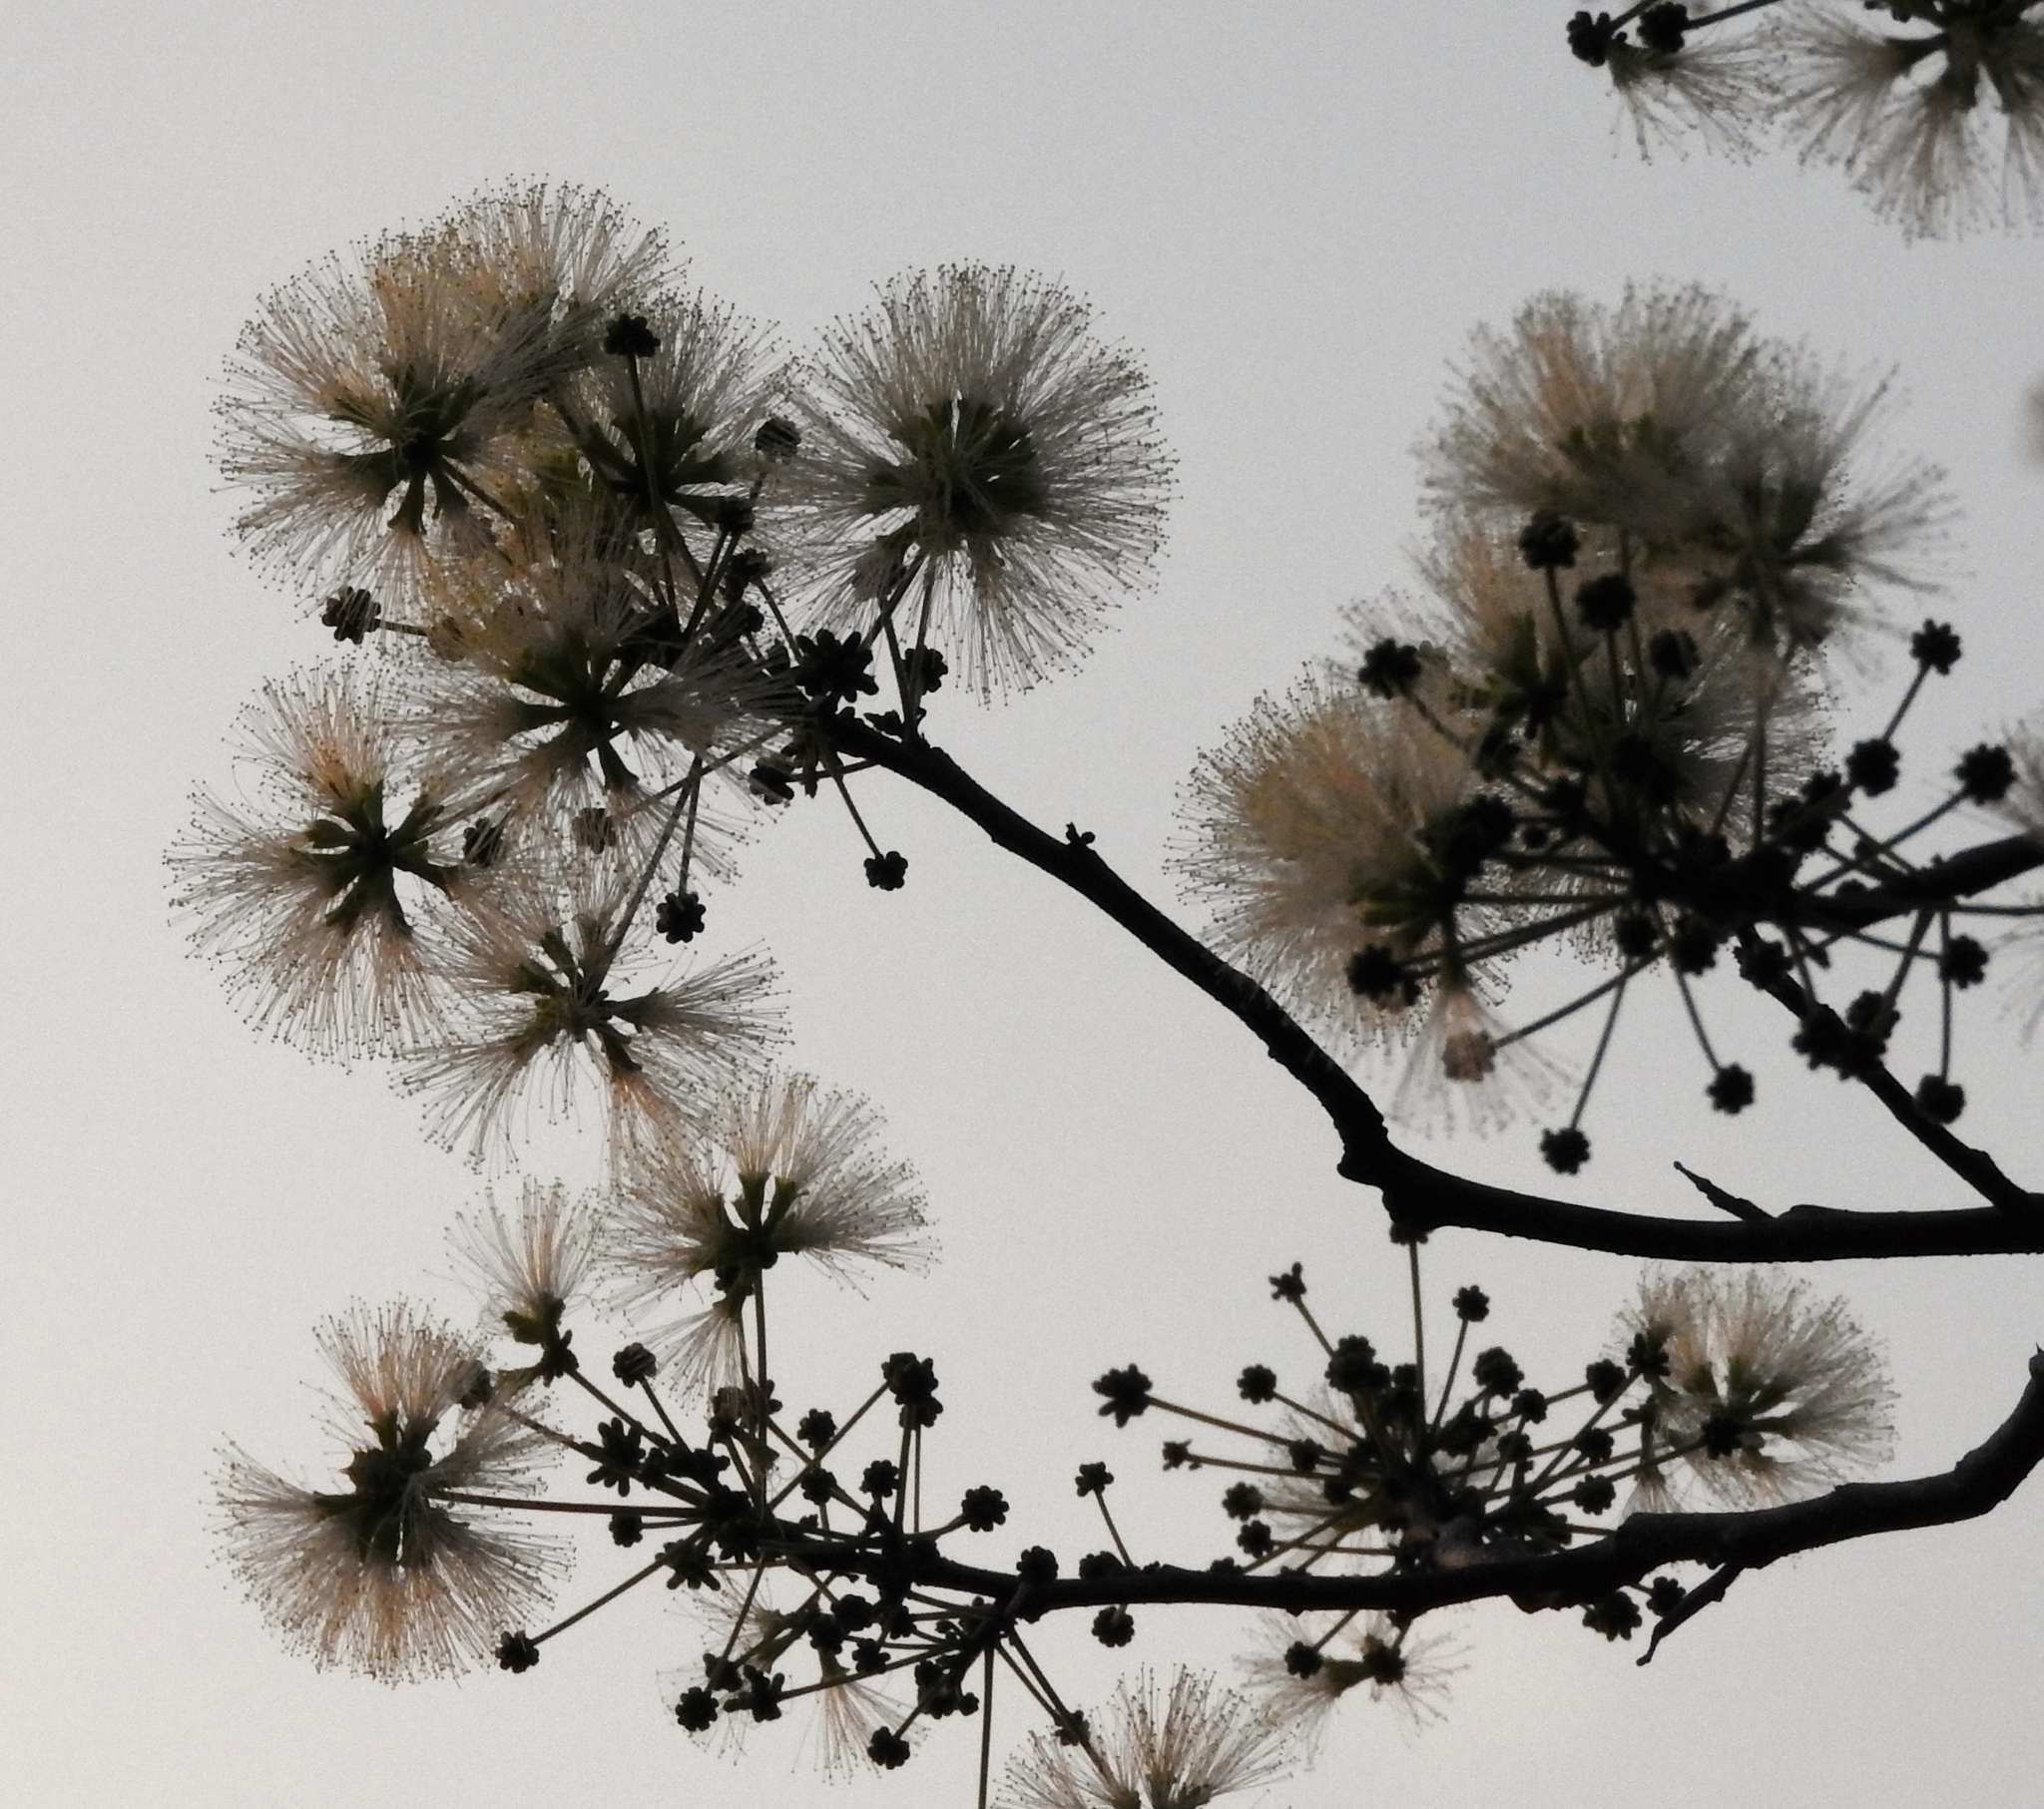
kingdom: Plantae
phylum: Tracheophyta
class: Magnoliopsida
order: Fabales
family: Fabaceae
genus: Albizia
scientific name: Albizia occidentalis
